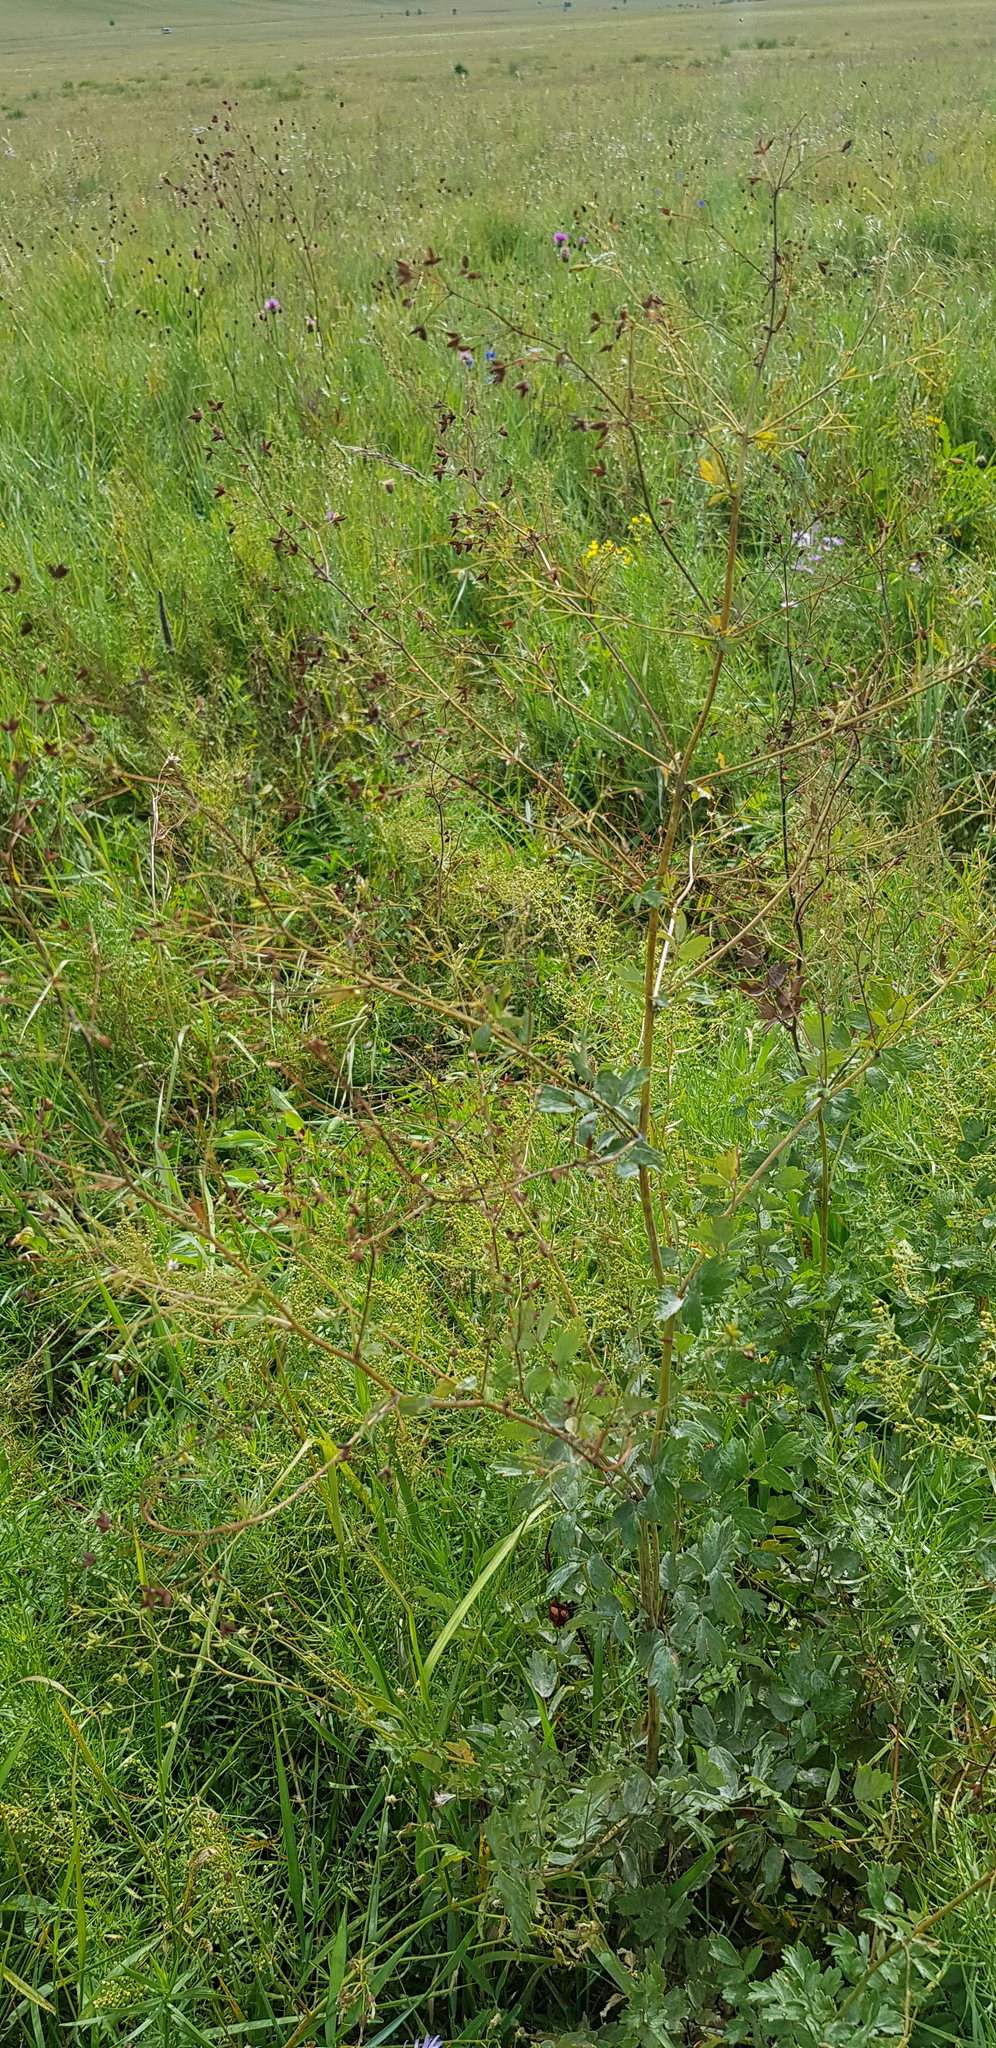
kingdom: Plantae
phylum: Tracheophyta
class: Magnoliopsida
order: Ranunculales
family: Ranunculaceae
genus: Thalictrum
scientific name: Thalictrum minus
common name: Lesser meadow-rue
